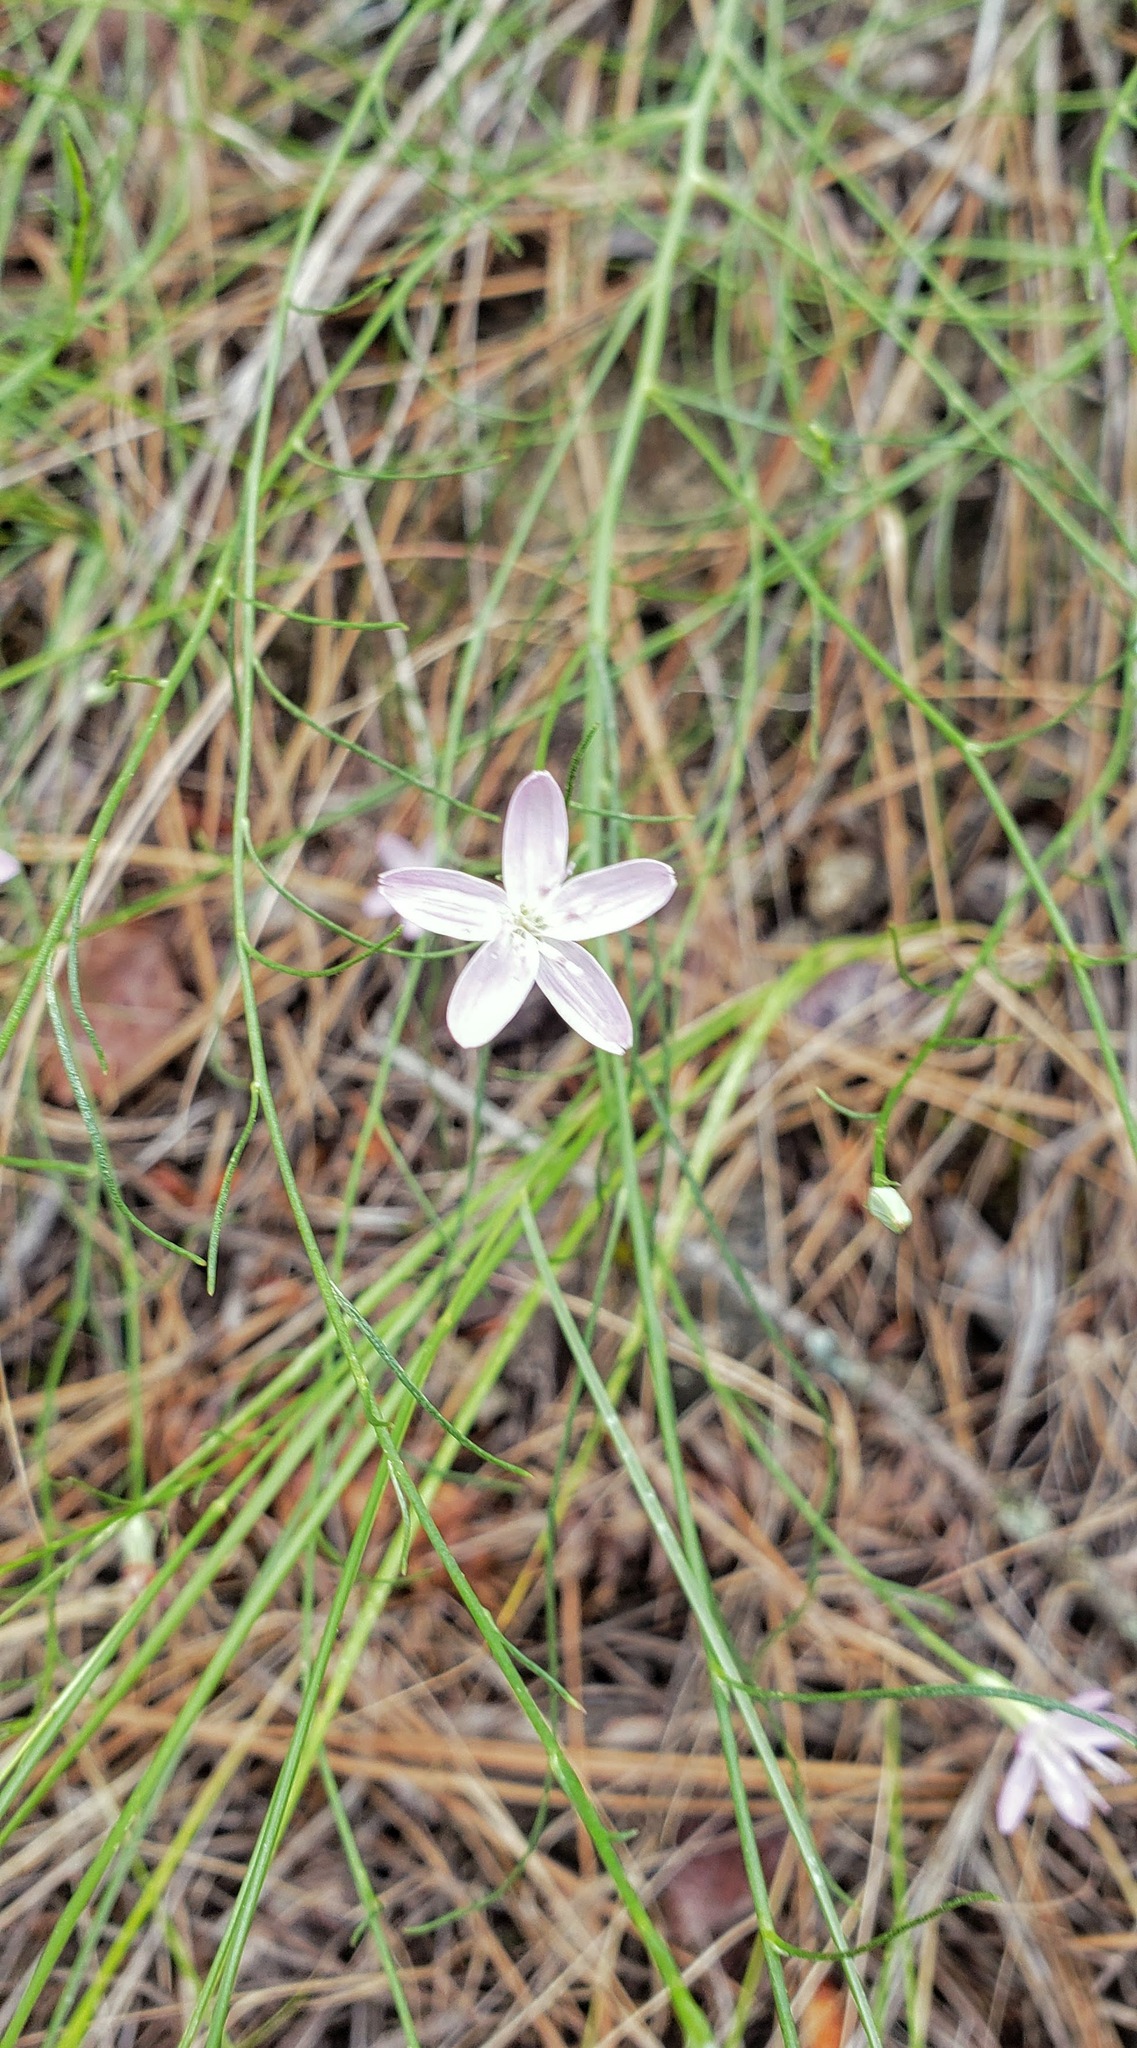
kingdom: Plantae
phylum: Tracheophyta
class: Magnoliopsida
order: Asterales
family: Asteraceae
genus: Lygodesmia
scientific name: Lygodesmia juncea
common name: Common skeletonweed
